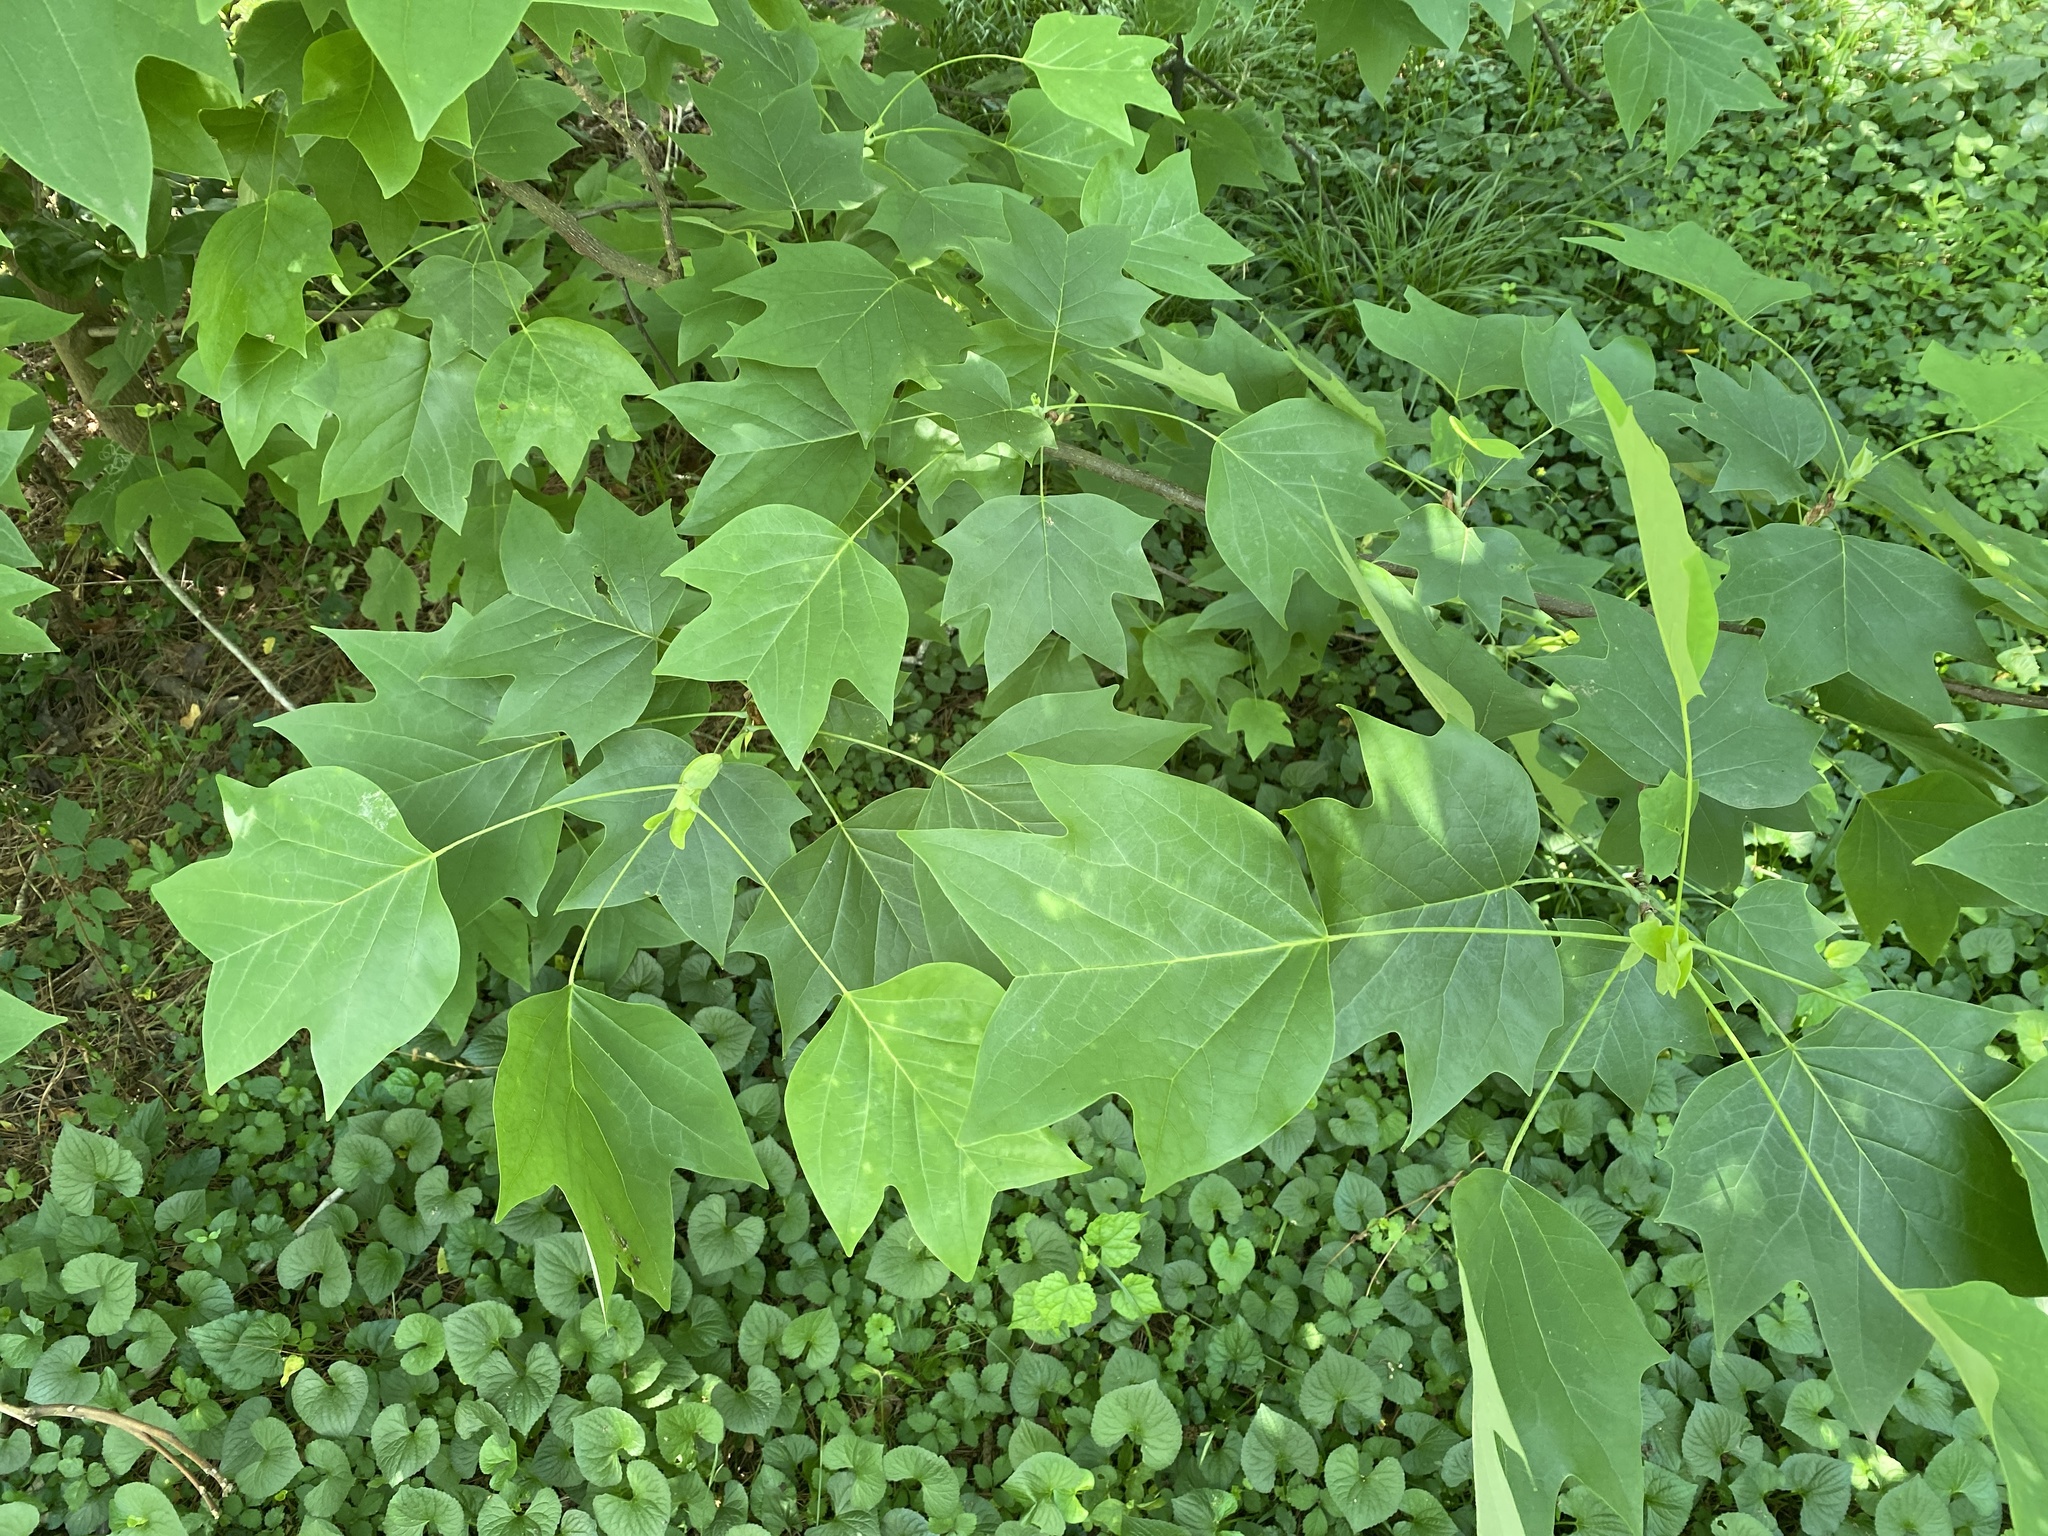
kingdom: Plantae
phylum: Tracheophyta
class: Magnoliopsida
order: Magnoliales
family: Magnoliaceae
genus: Liriodendron
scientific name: Liriodendron tulipifera
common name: Tulip tree
